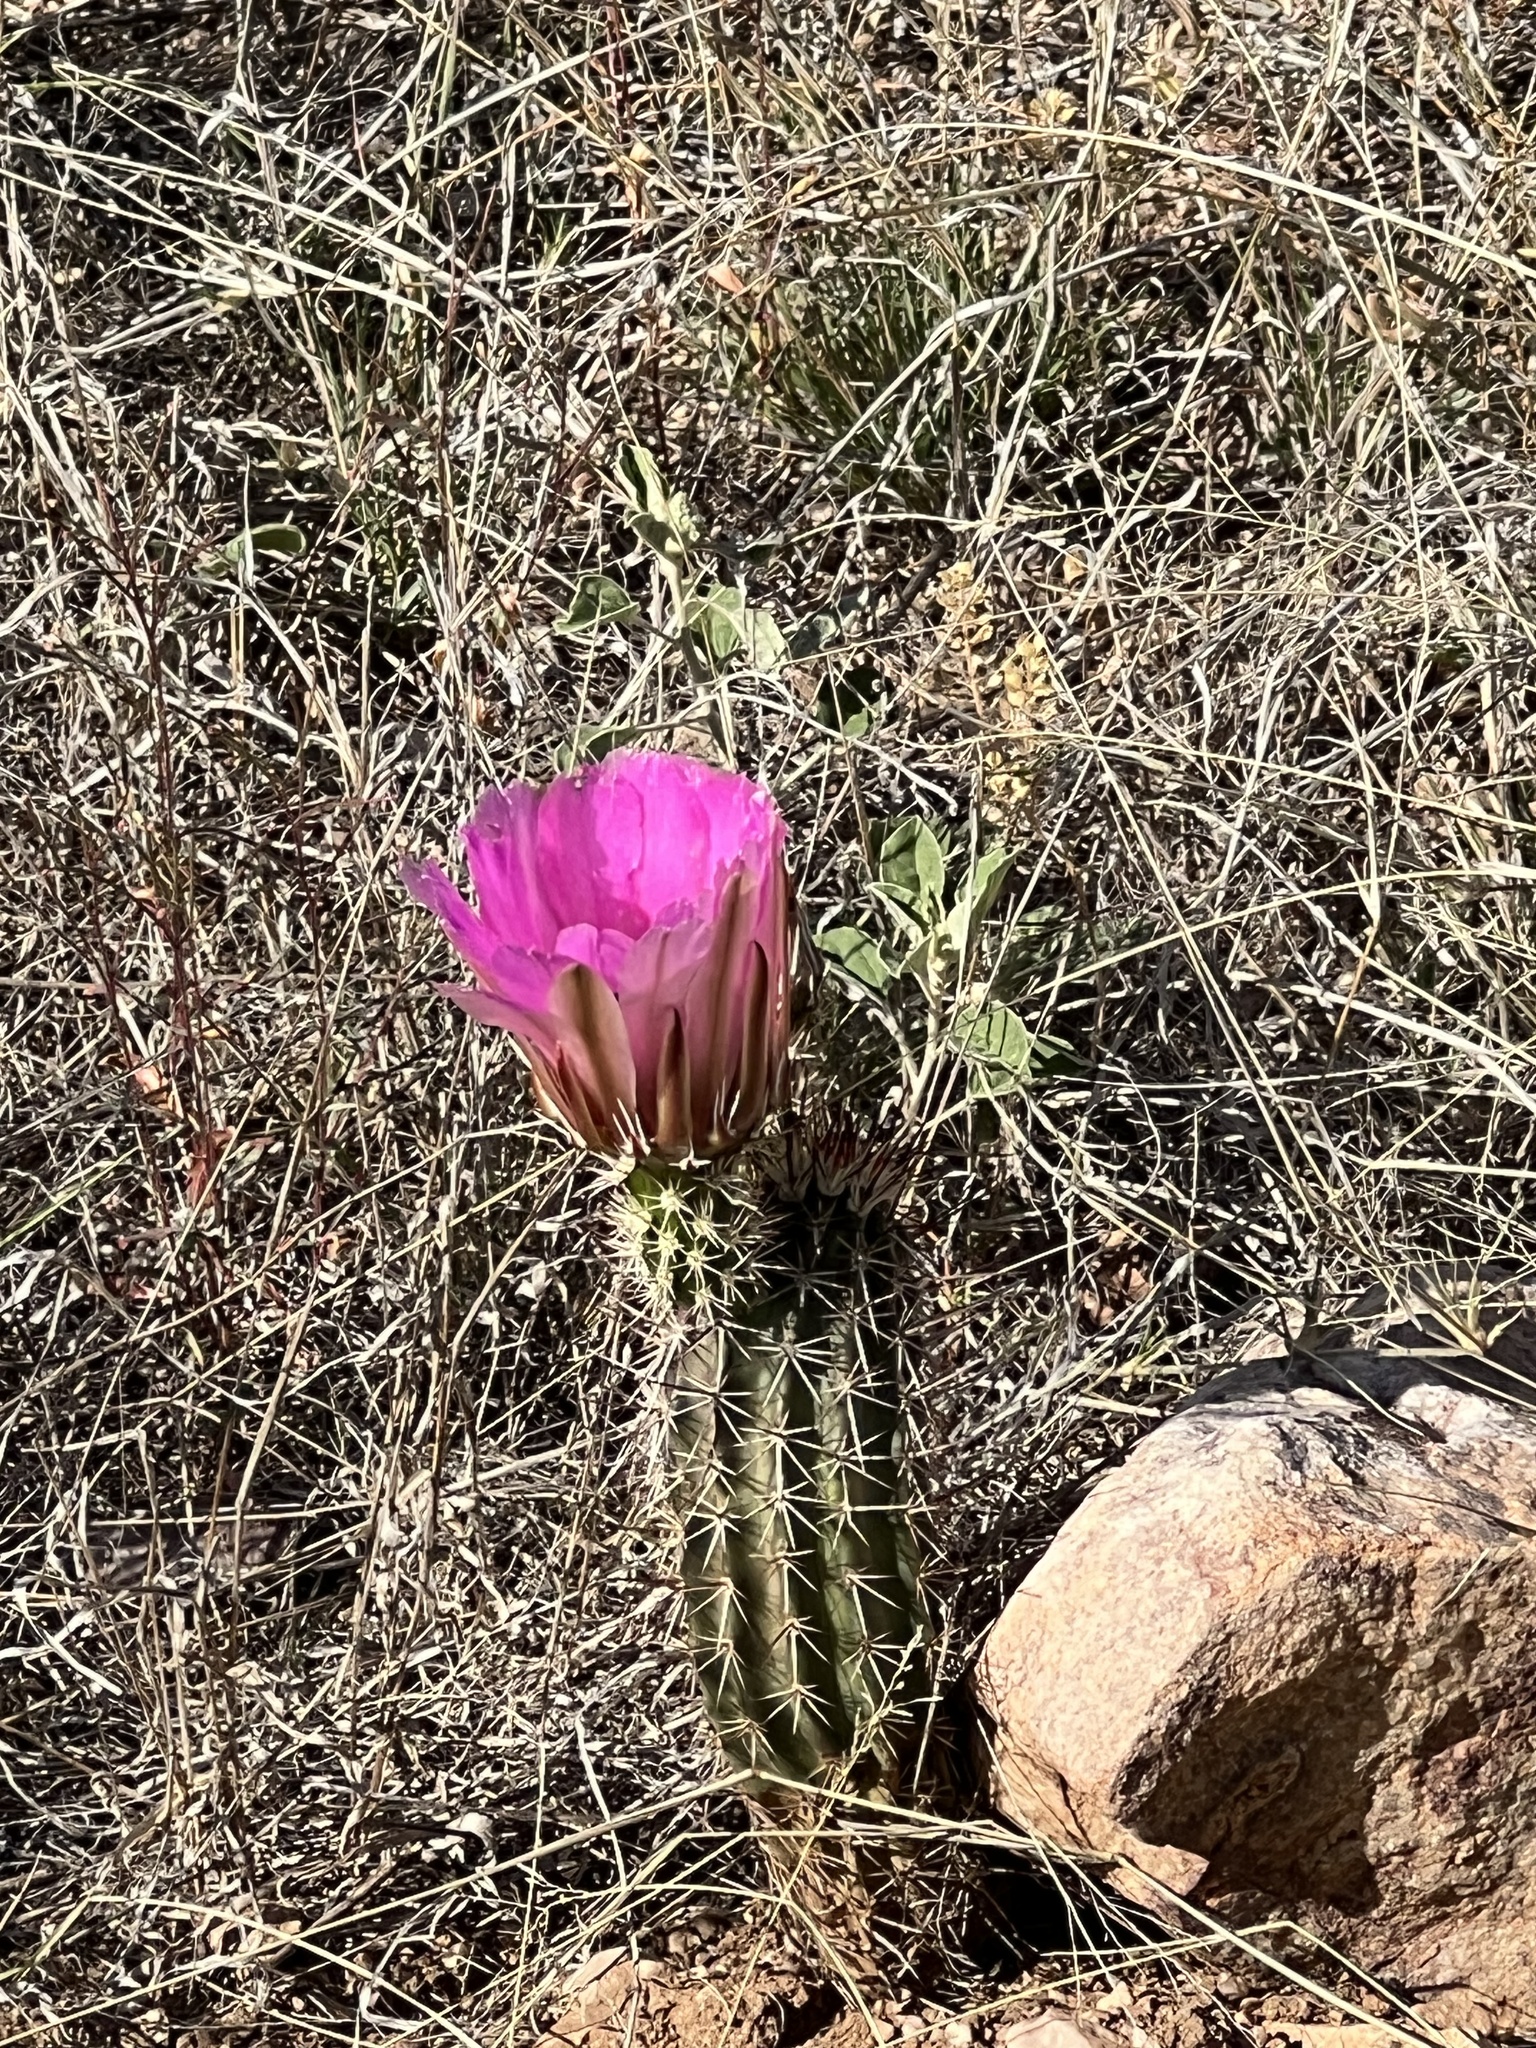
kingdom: Plantae
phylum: Tracheophyta
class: Magnoliopsida
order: Caryophyllales
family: Cactaceae
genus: Echinocereus
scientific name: Echinocereus fasciculatus
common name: Bundle hedgehog
